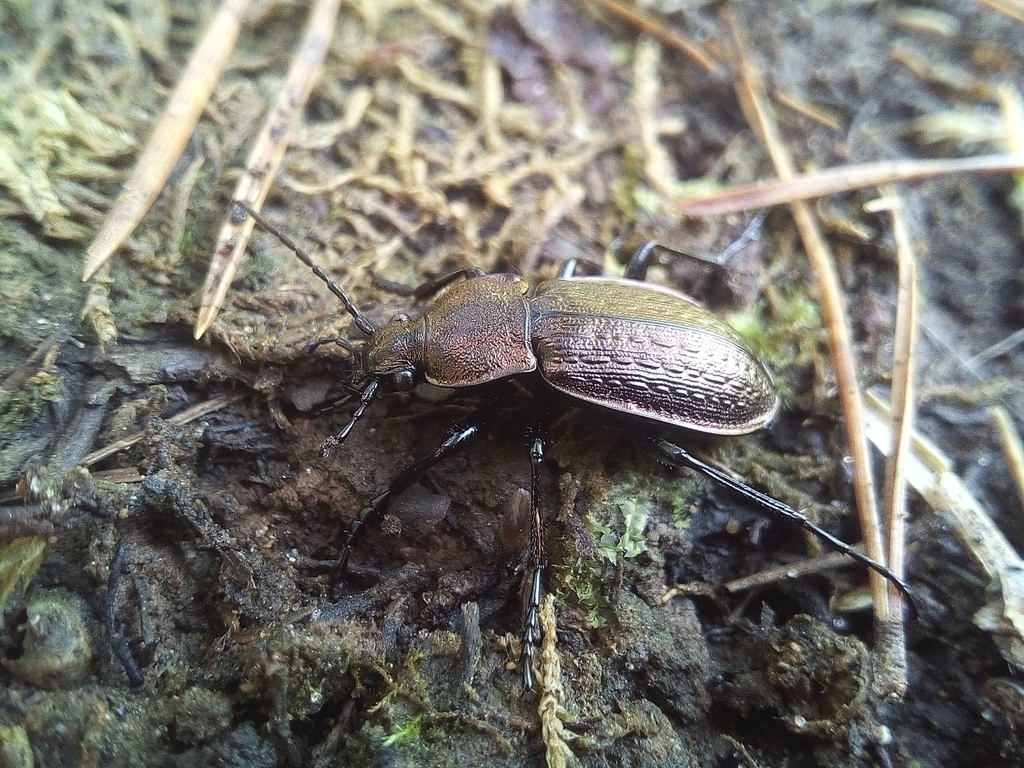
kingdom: Animalia
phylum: Arthropoda
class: Insecta
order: Coleoptera
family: Carabidae
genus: Carabus
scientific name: Carabus arvensis
